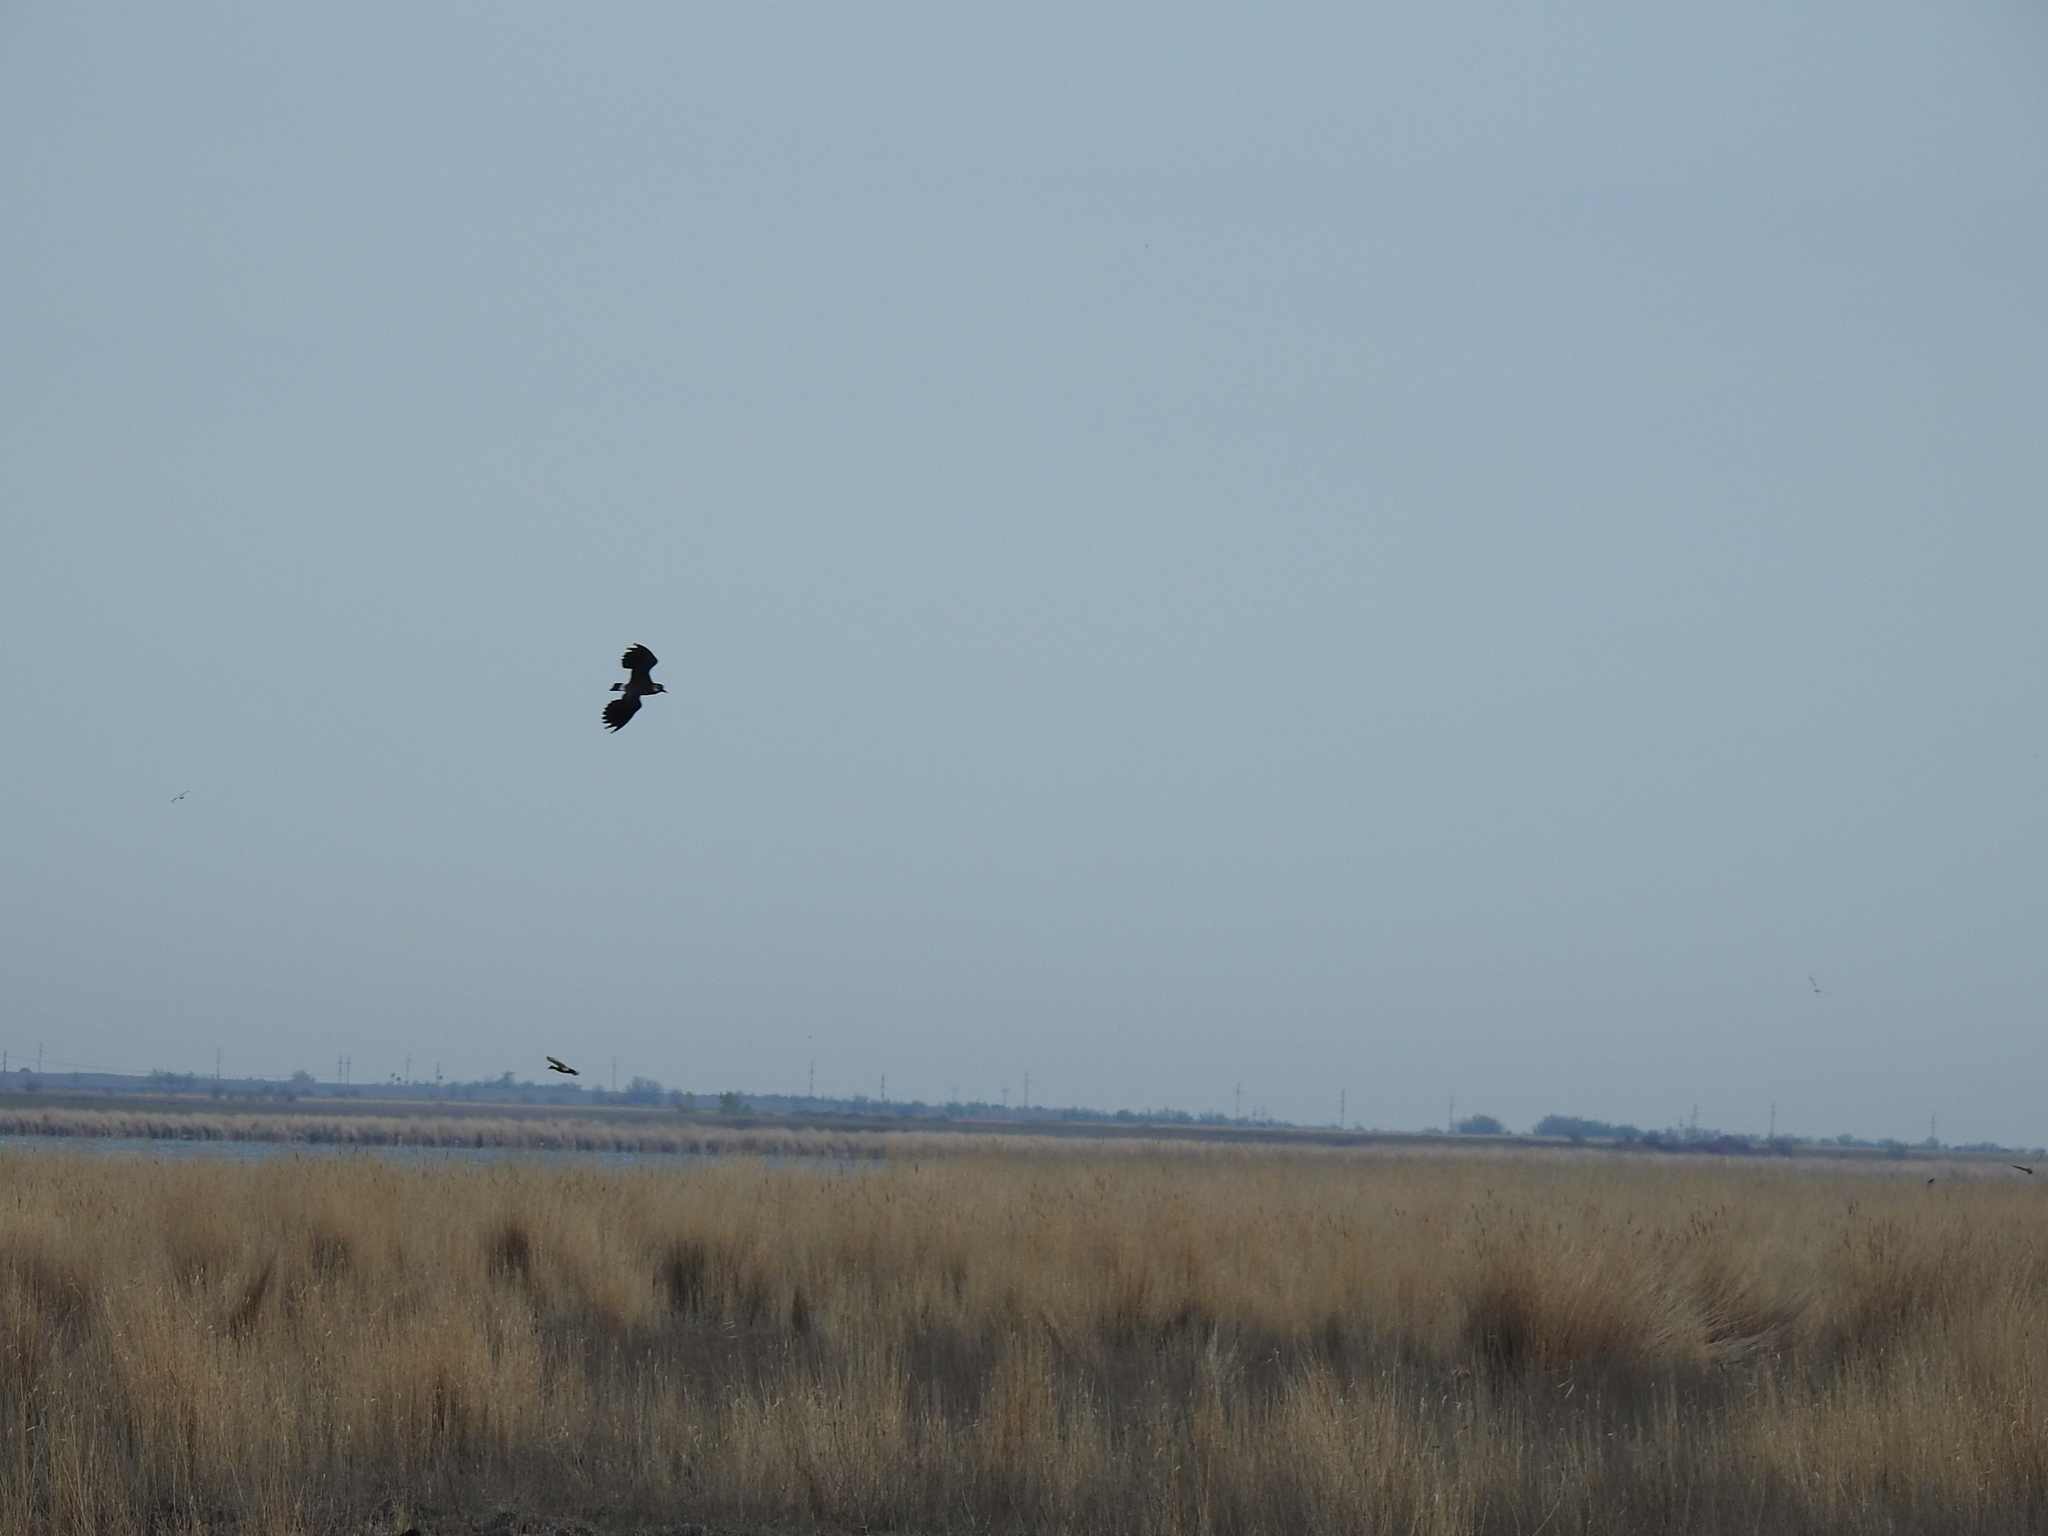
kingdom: Animalia
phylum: Chordata
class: Aves
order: Charadriiformes
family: Charadriidae
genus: Vanellus
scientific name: Vanellus vanellus
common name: Northern lapwing
